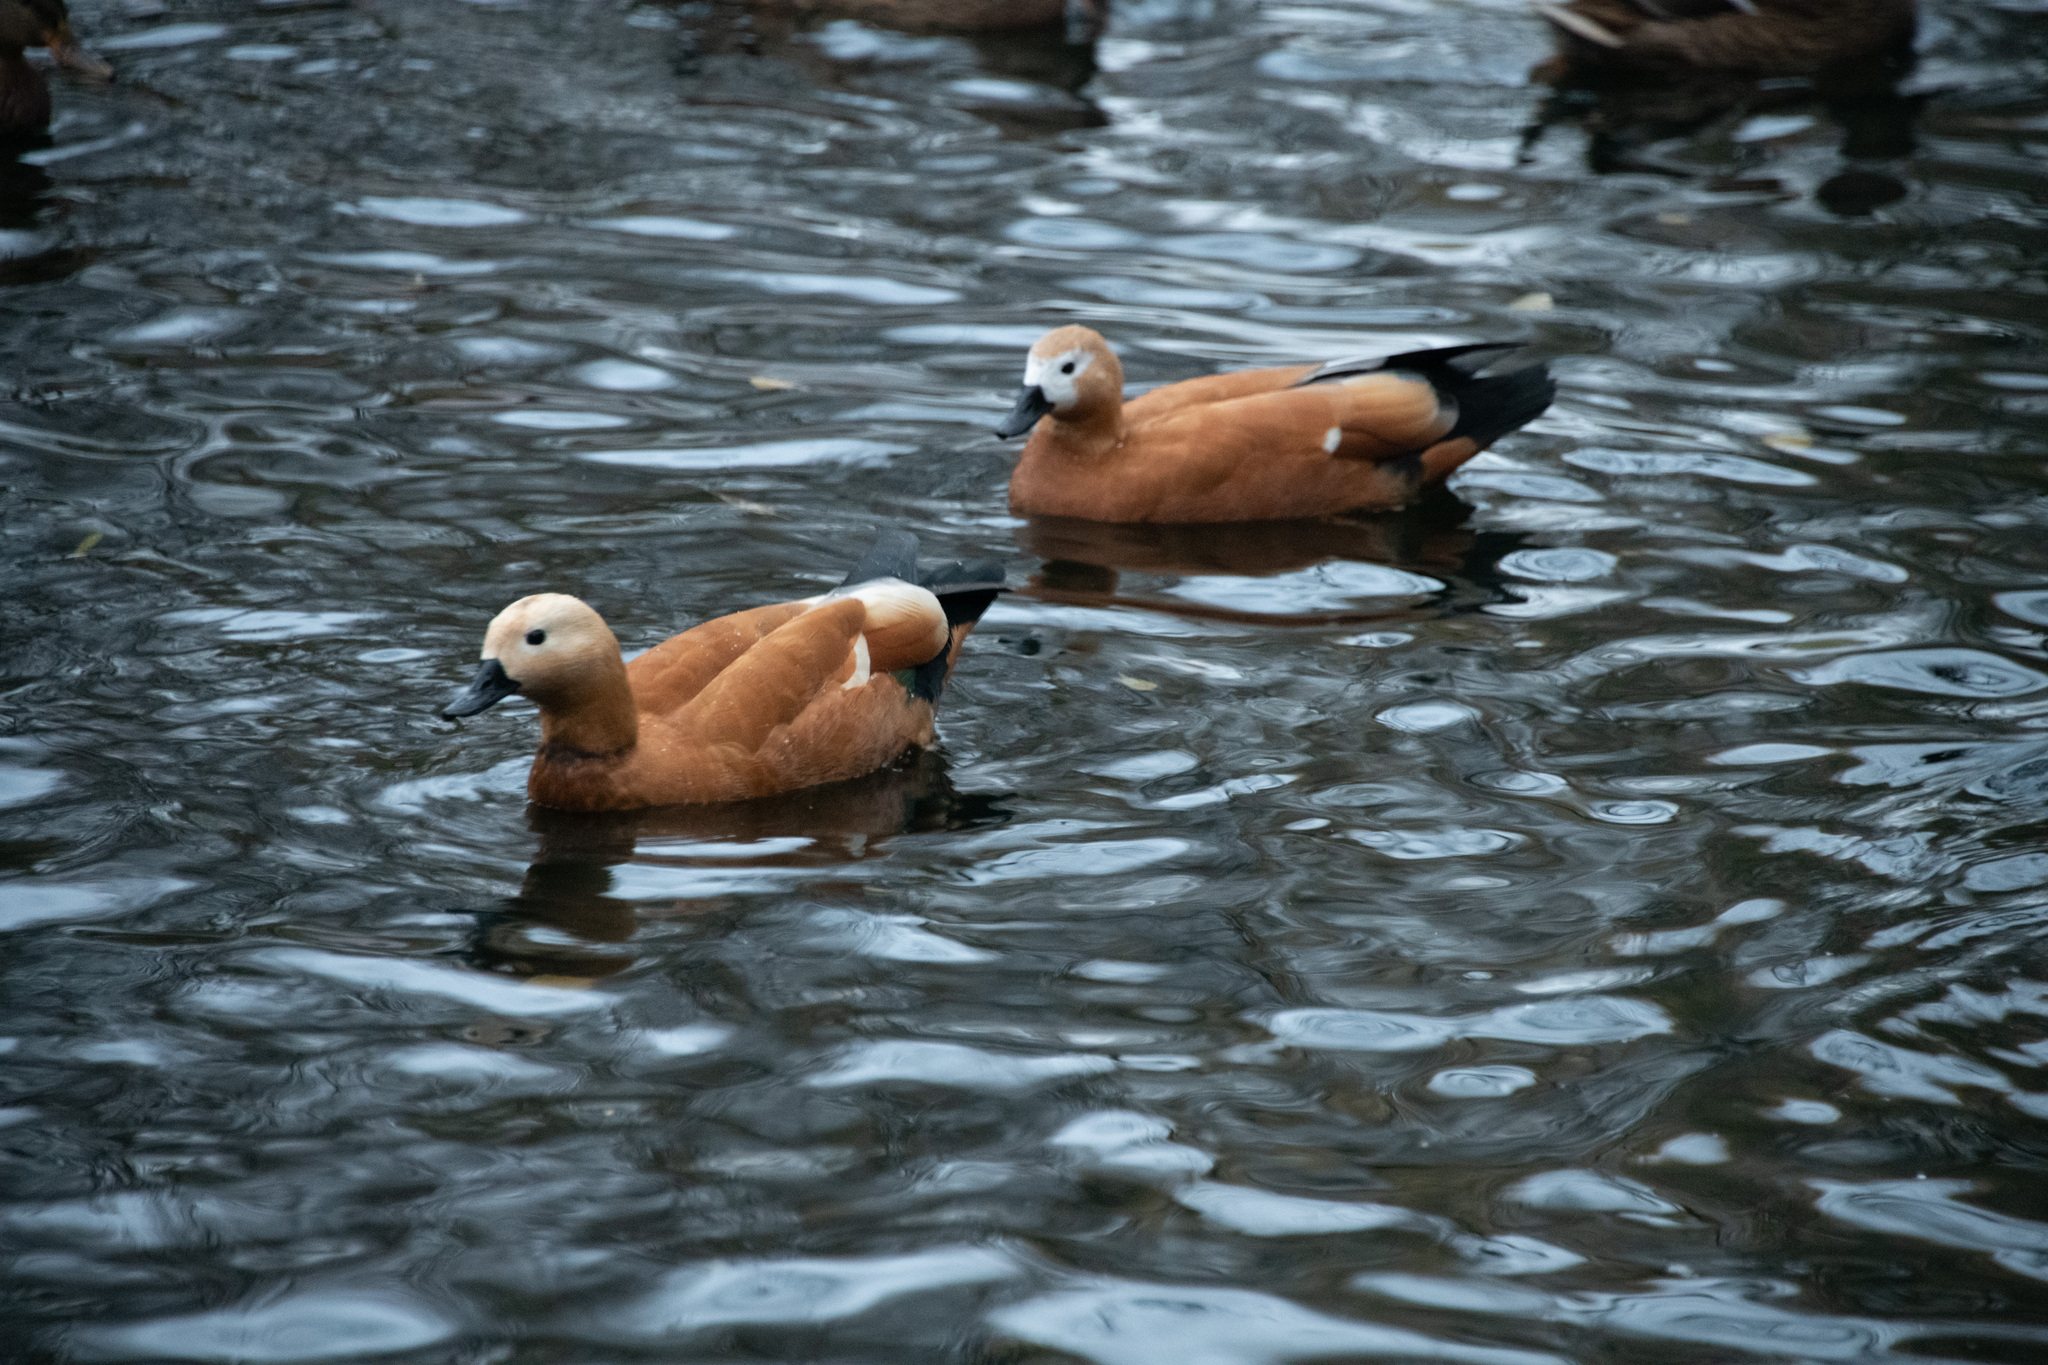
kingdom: Animalia
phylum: Chordata
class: Aves
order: Anseriformes
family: Anatidae
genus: Tadorna
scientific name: Tadorna ferruginea
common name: Ruddy shelduck
